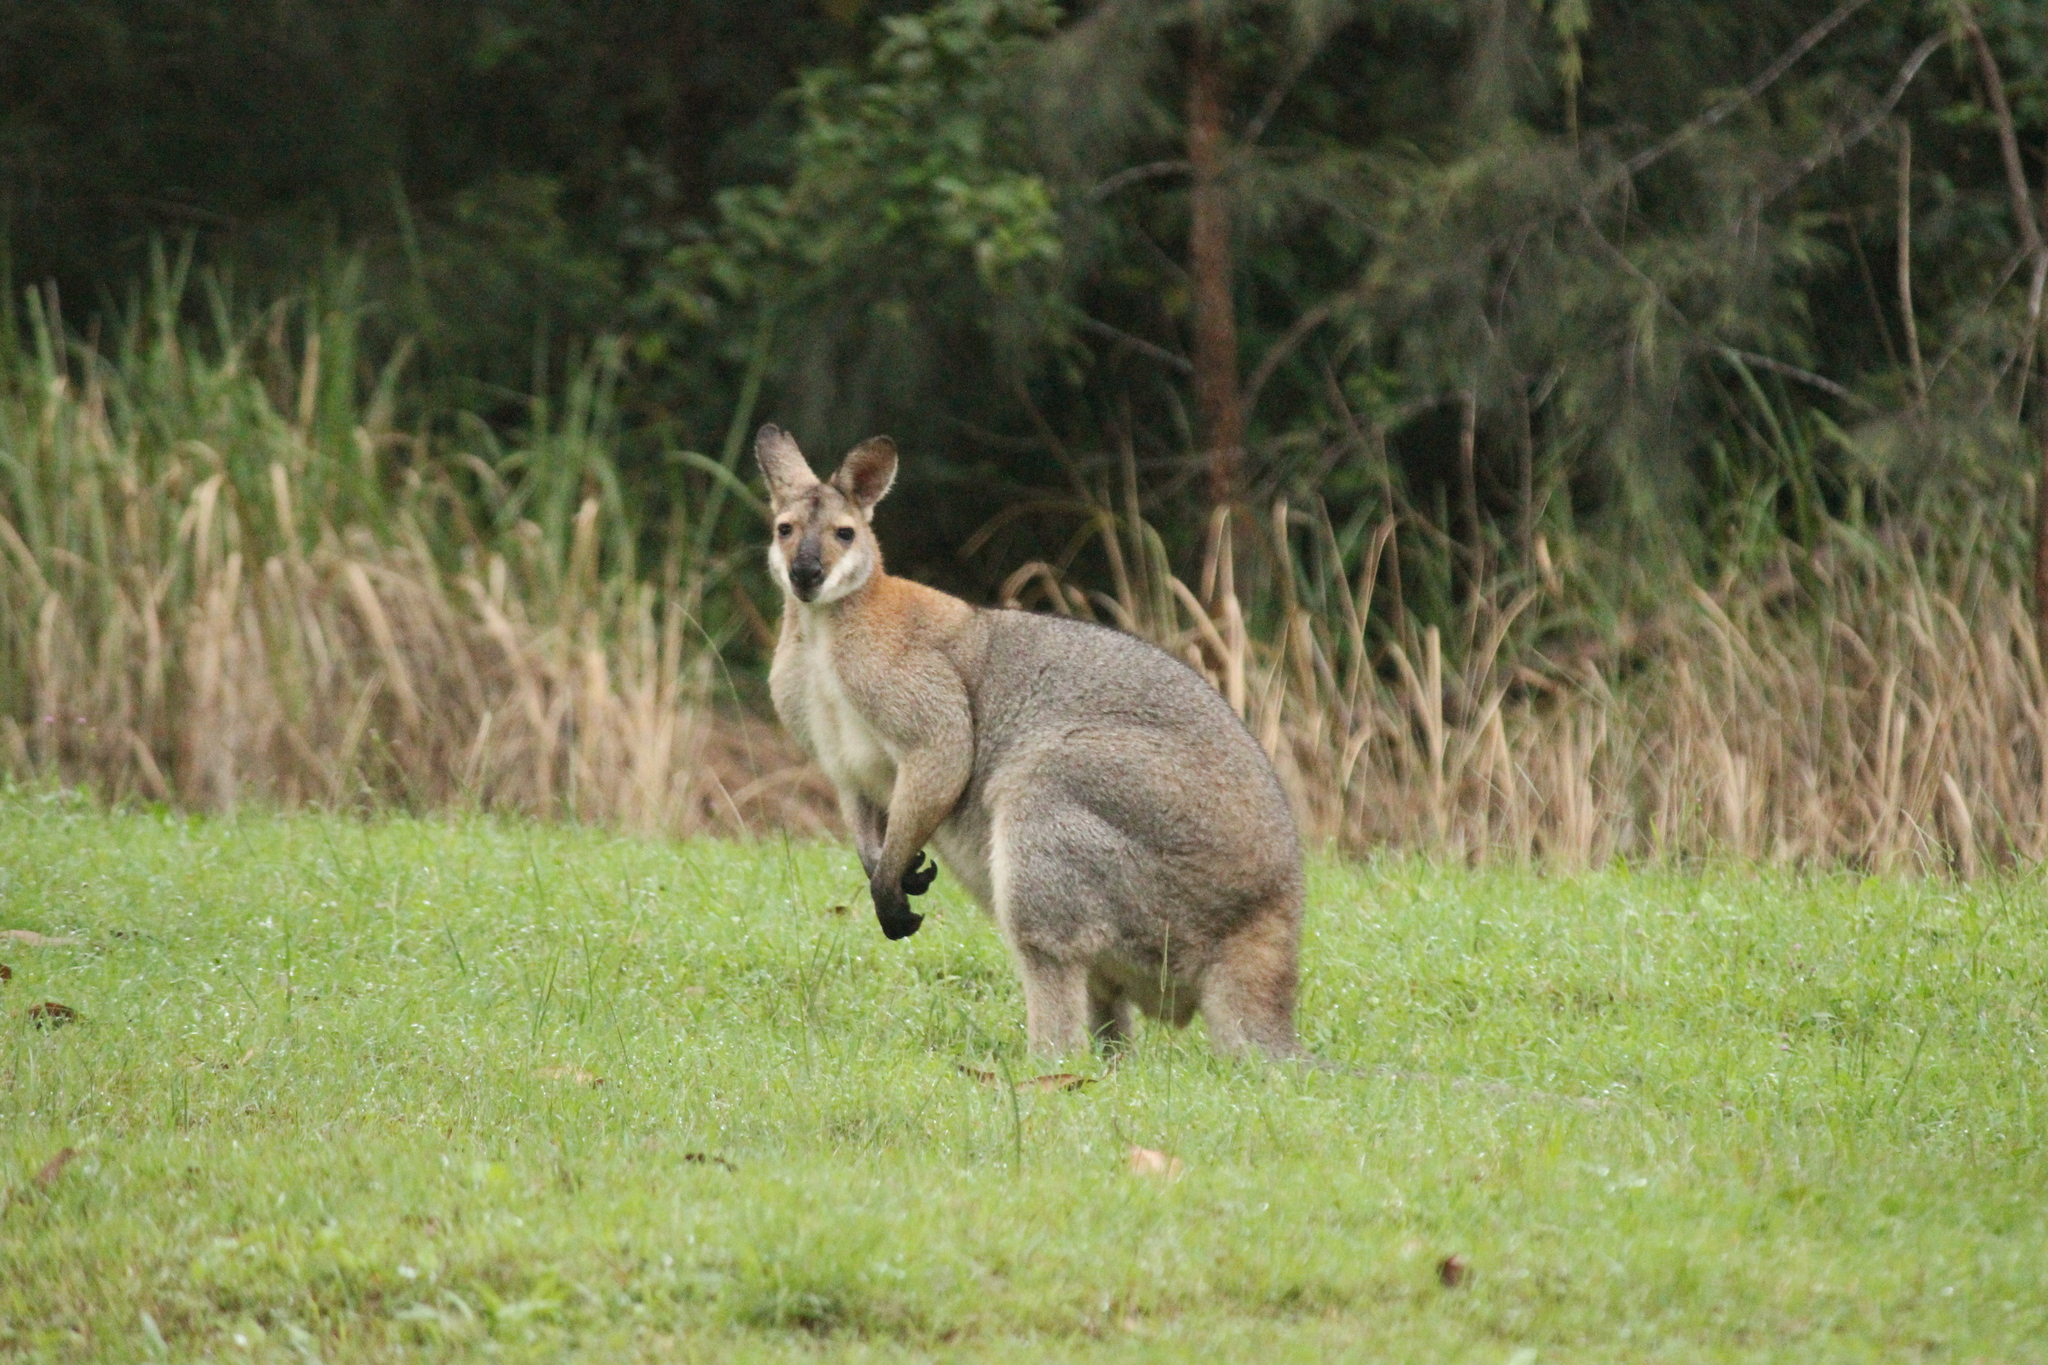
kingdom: Animalia
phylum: Chordata
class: Mammalia
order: Diprotodontia
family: Macropodidae
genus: Notamacropus
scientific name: Notamacropus rufogriseus
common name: Red-necked wallaby
